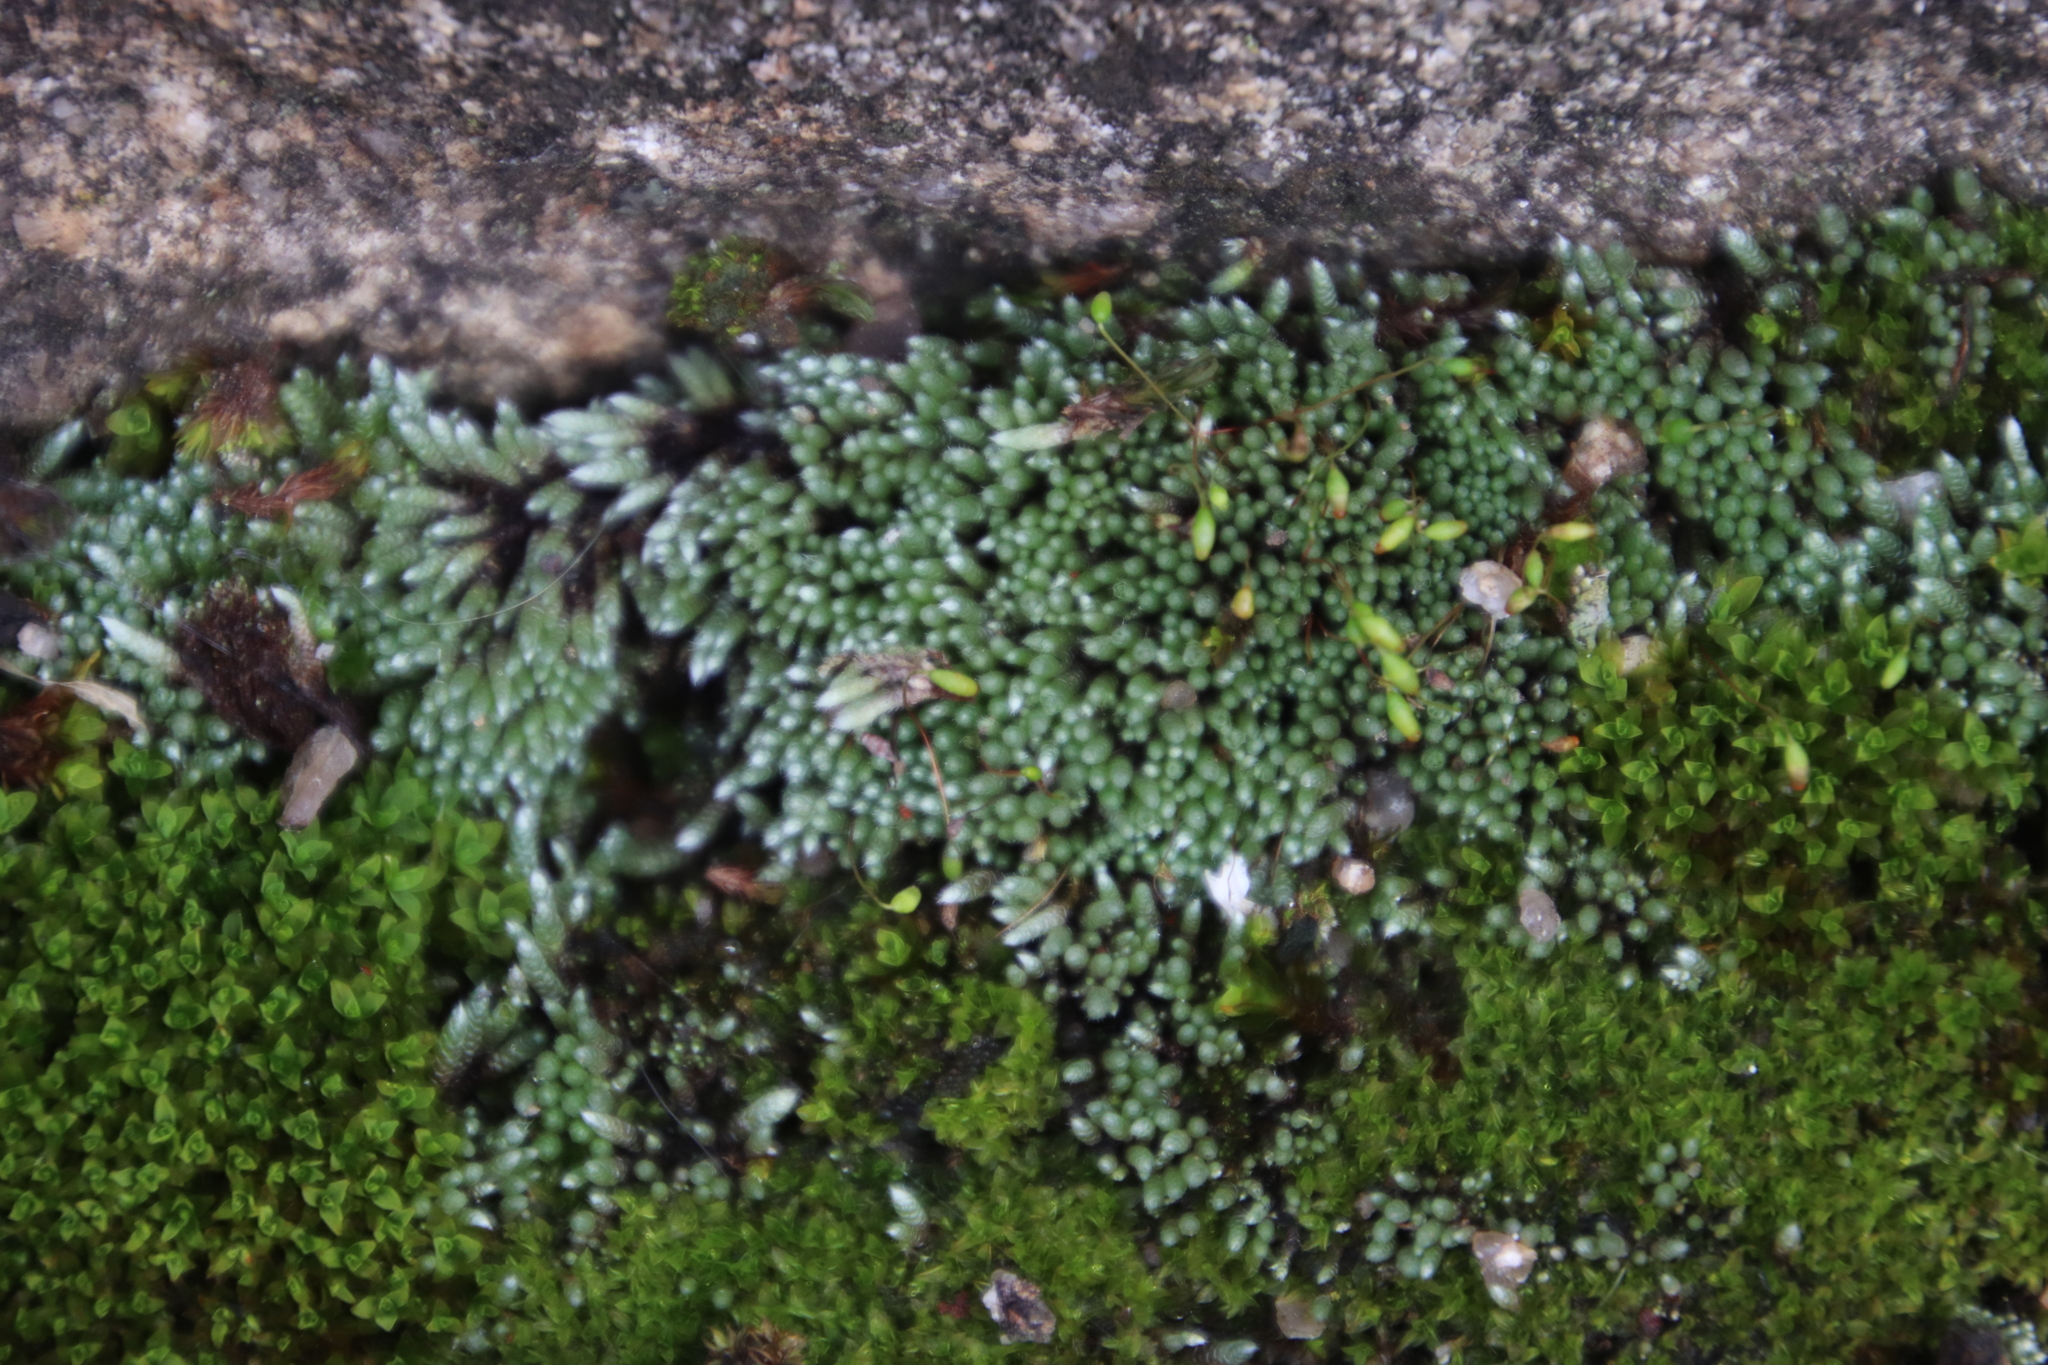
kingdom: Plantae
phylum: Bryophyta
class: Bryopsida
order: Bryales
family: Bryaceae
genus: Bryum
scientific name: Bryum argenteum
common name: Silver-moss
